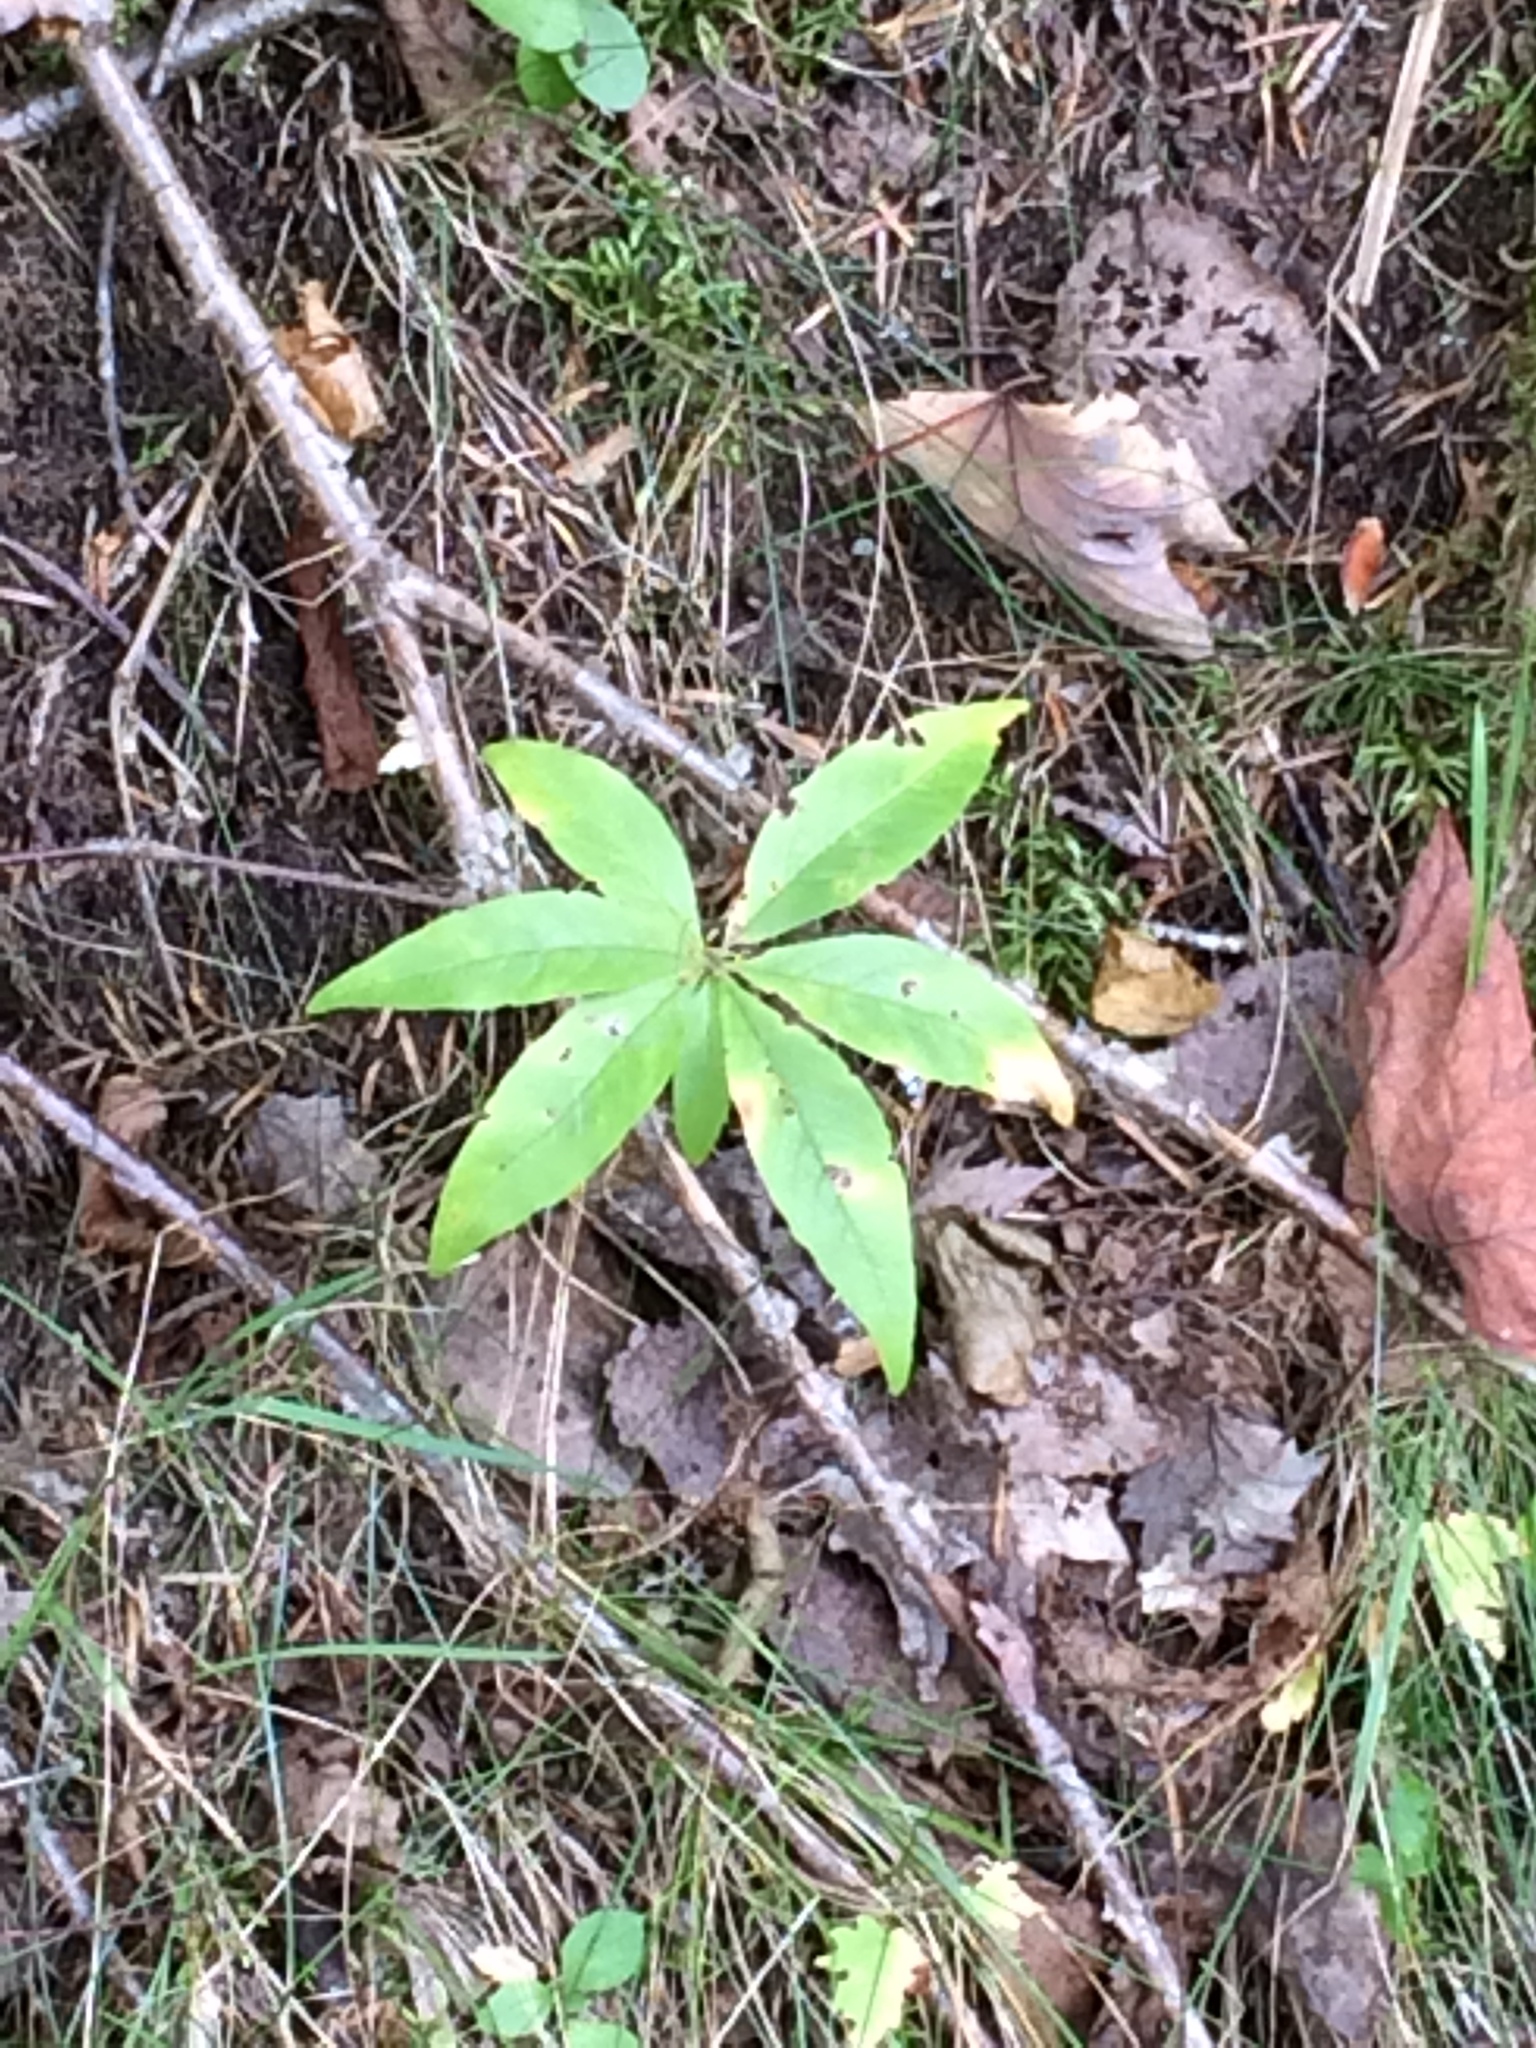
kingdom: Plantae
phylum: Tracheophyta
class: Magnoliopsida
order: Ericales
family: Primulaceae
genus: Lysimachia
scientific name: Lysimachia borealis
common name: American starflower
